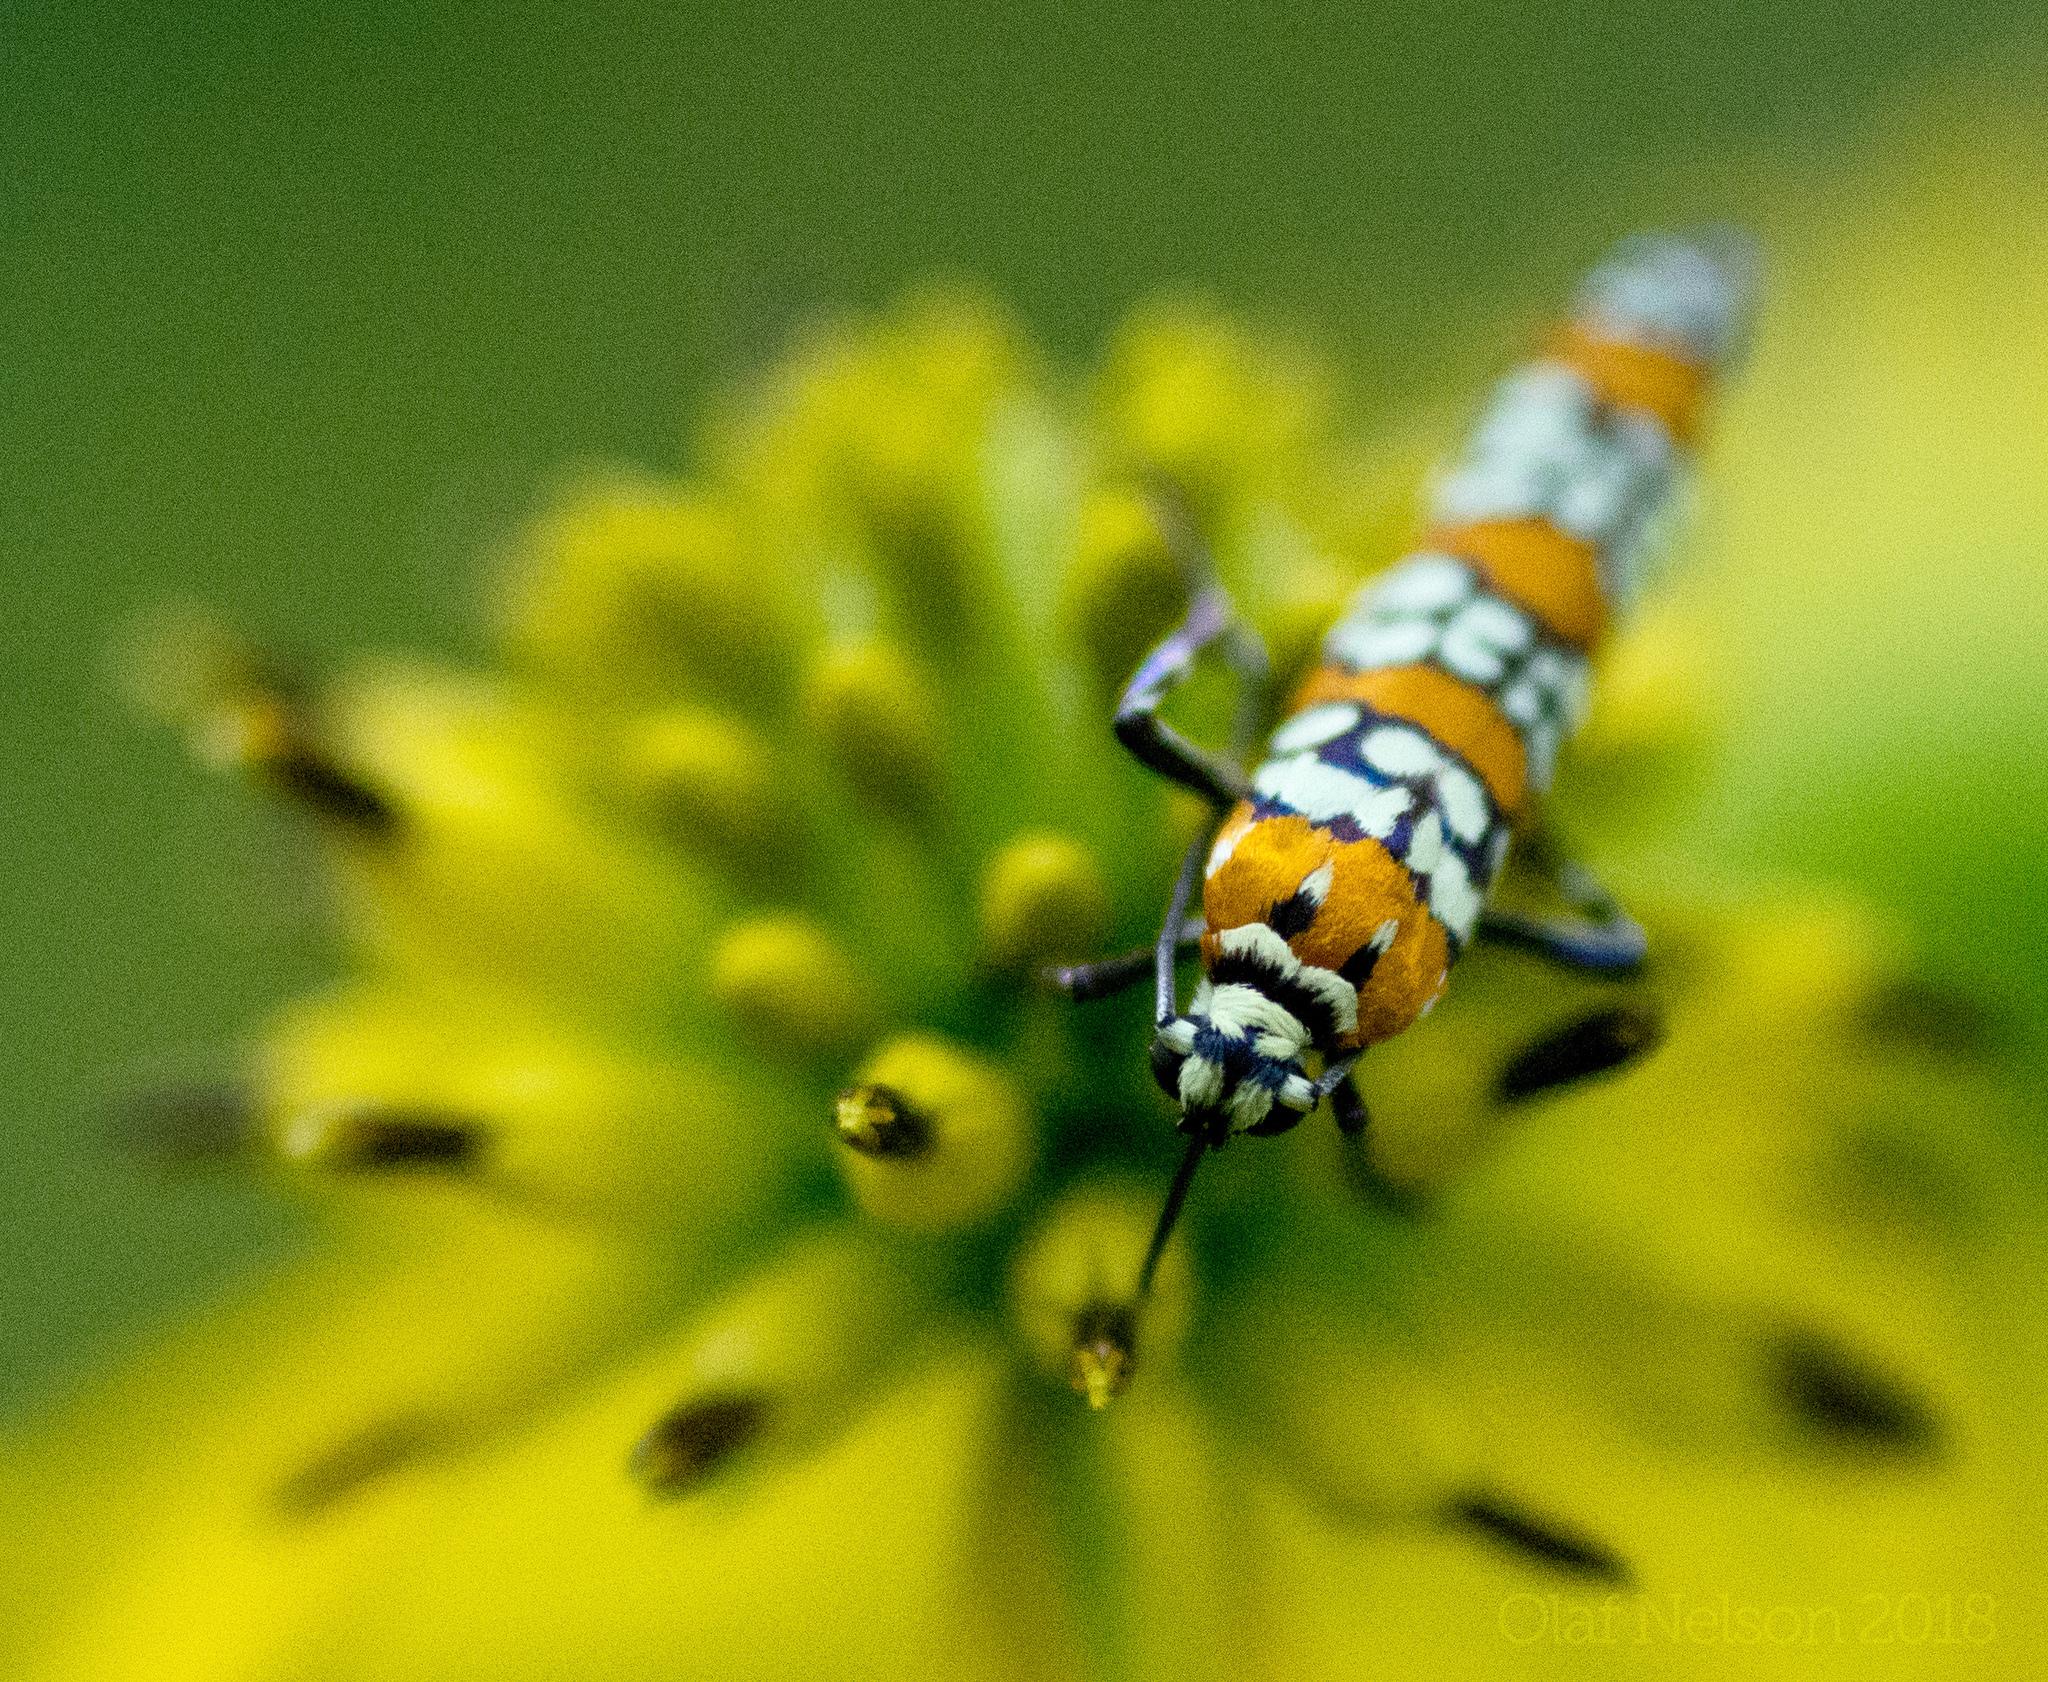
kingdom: Animalia
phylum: Arthropoda
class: Insecta
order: Lepidoptera
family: Attevidae
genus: Atteva
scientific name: Atteva punctella
